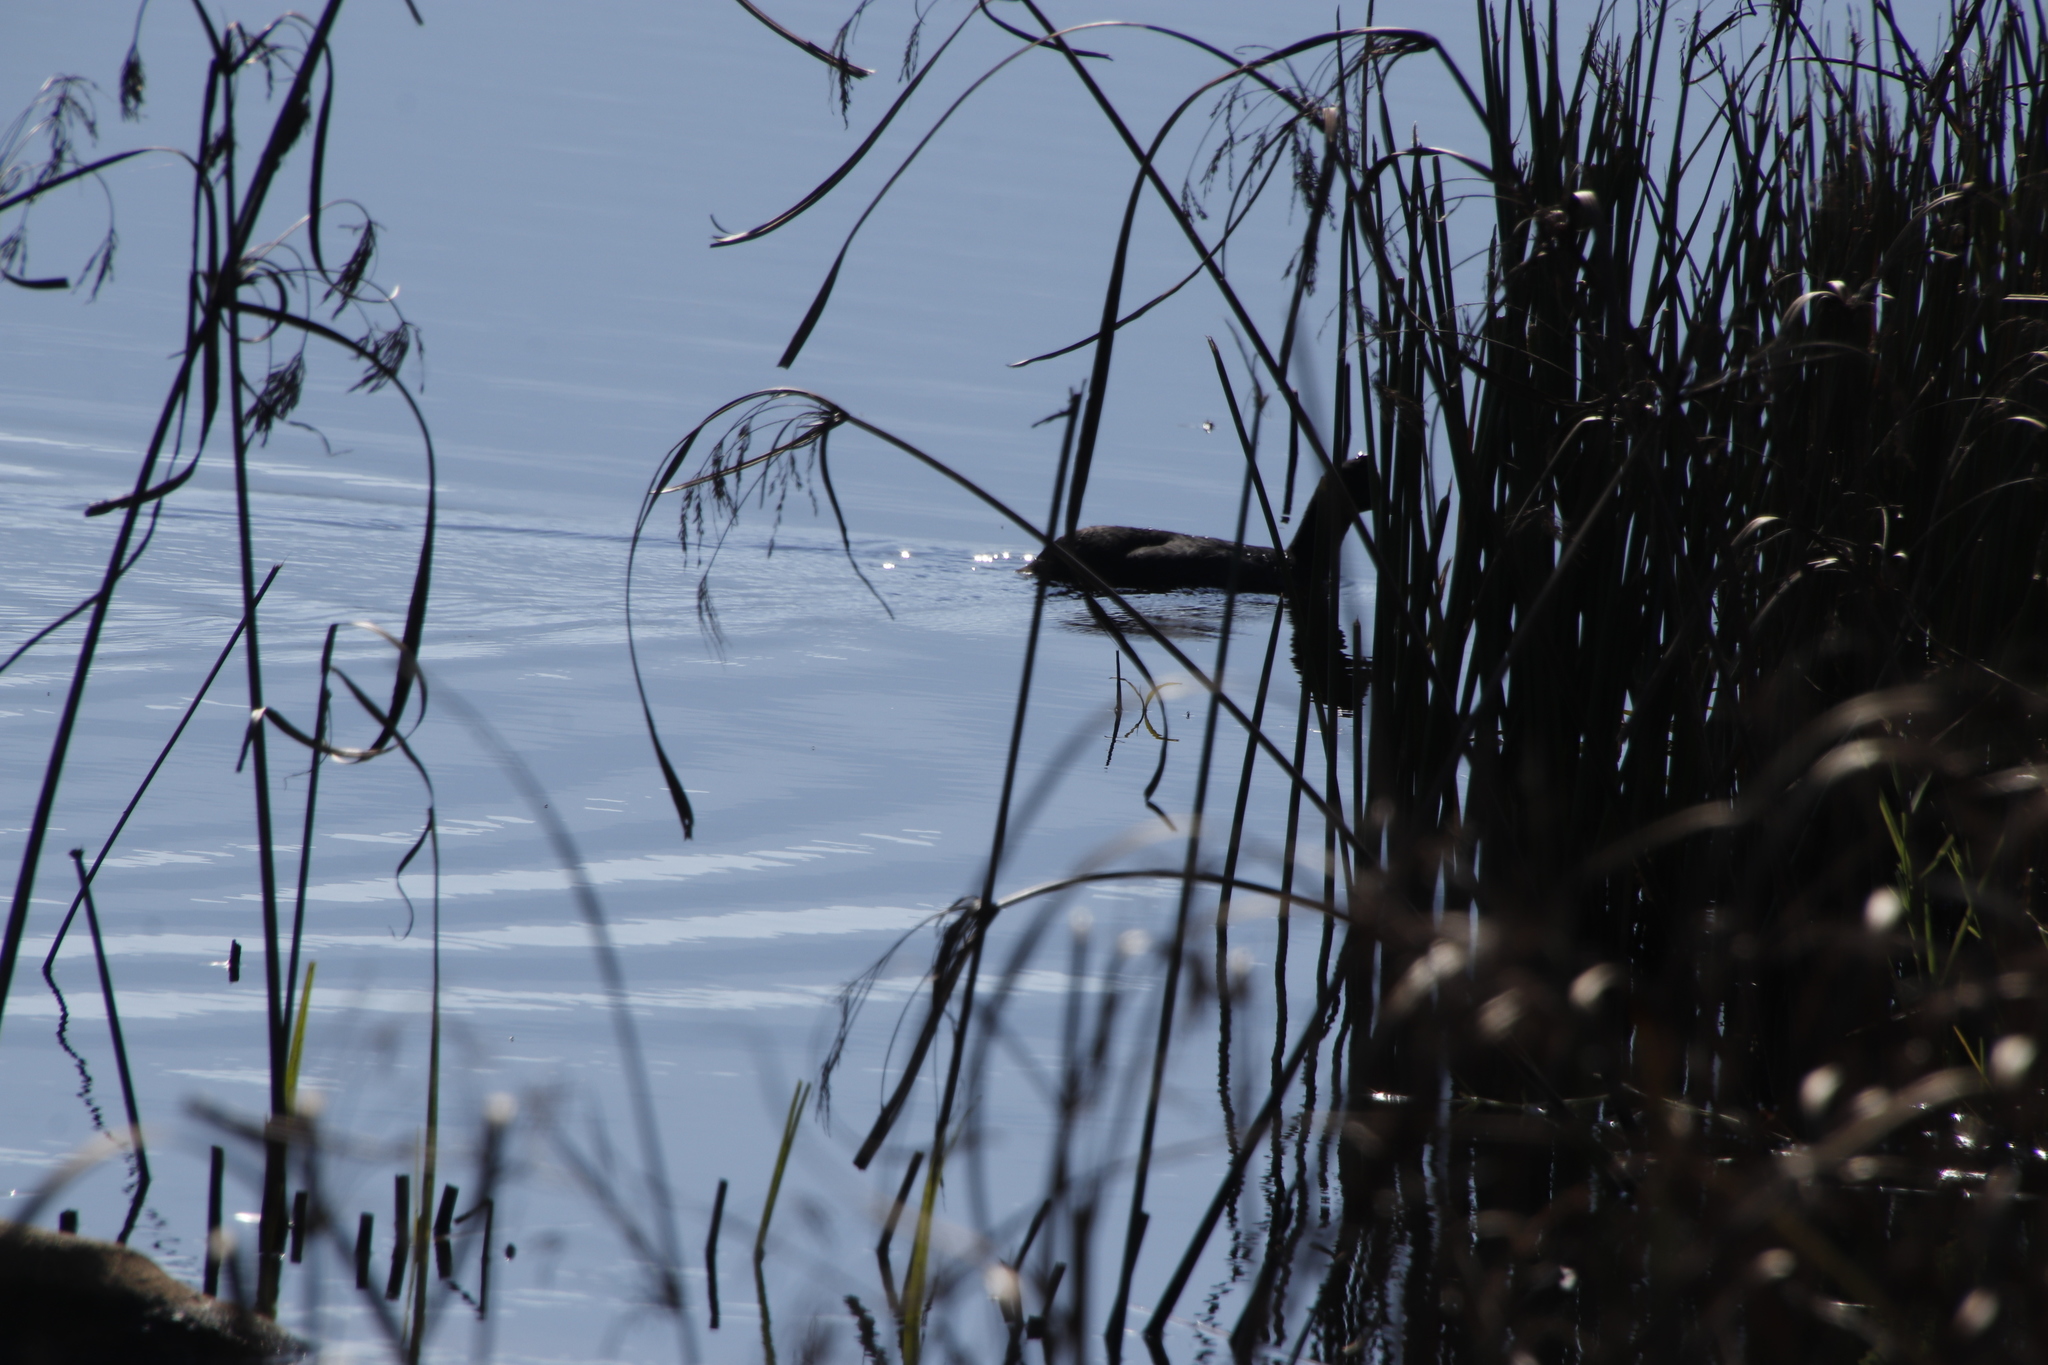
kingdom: Animalia
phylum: Chordata
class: Aves
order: Gruiformes
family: Rallidae
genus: Fulica
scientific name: Fulica cristata
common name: Red-knobbed coot
